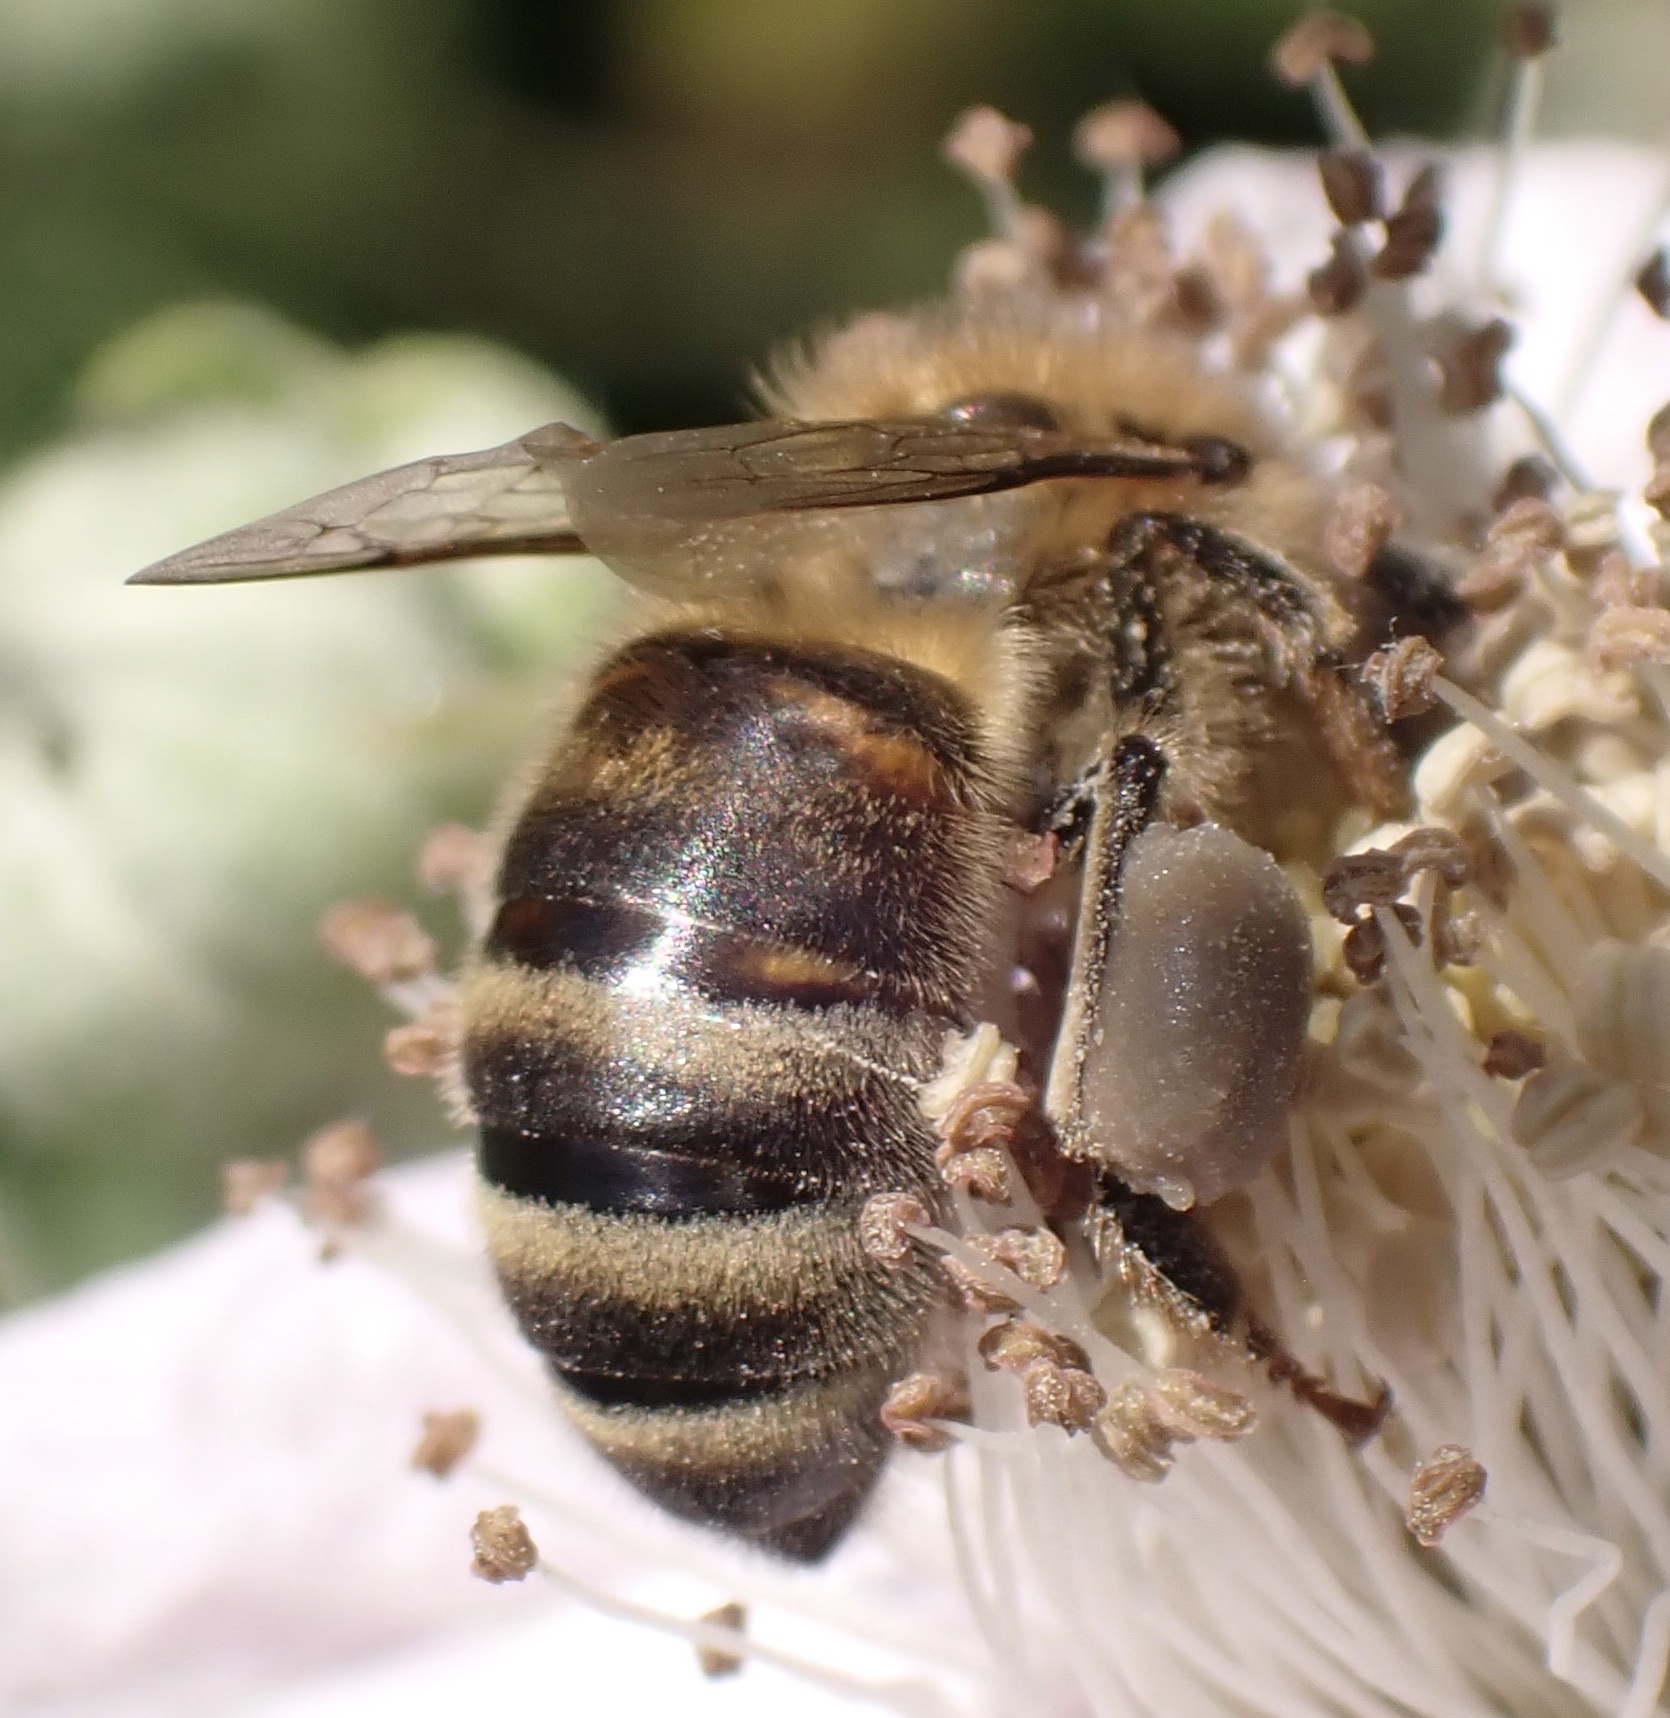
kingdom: Animalia
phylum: Arthropoda
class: Insecta
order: Hymenoptera
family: Apidae
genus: Apis
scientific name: Apis mellifera
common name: Honey bee
